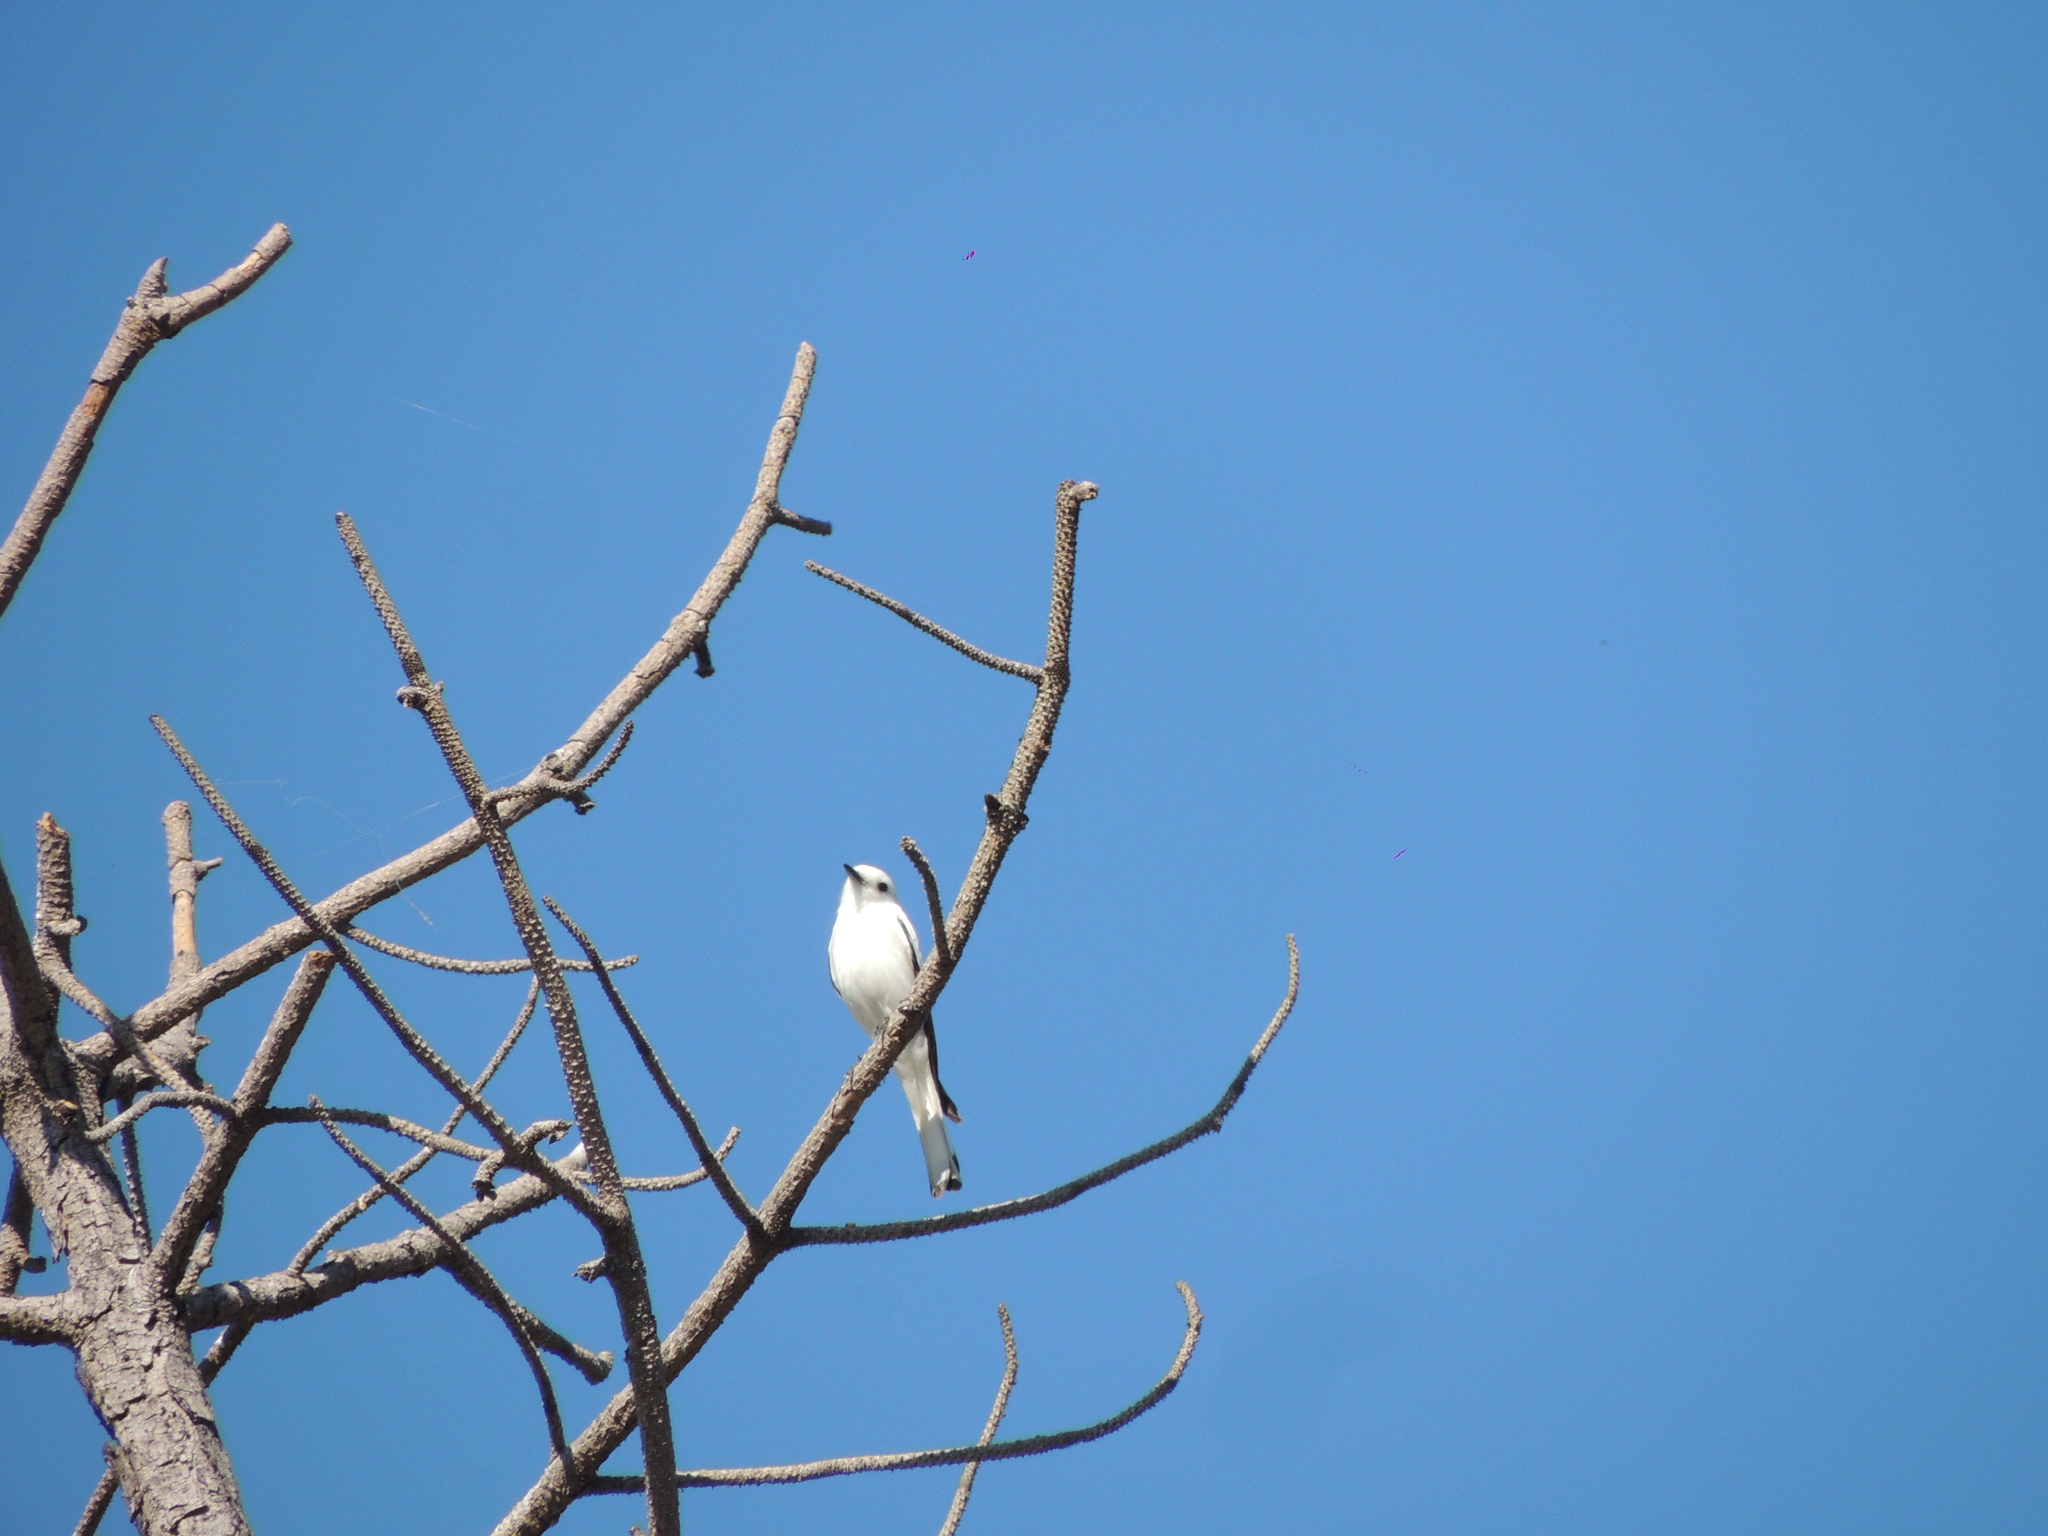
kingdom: Animalia
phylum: Chordata
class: Aves
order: Passeriformes
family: Tyrannidae
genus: Xolmis
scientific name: Xolmis irupero
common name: White monjita
